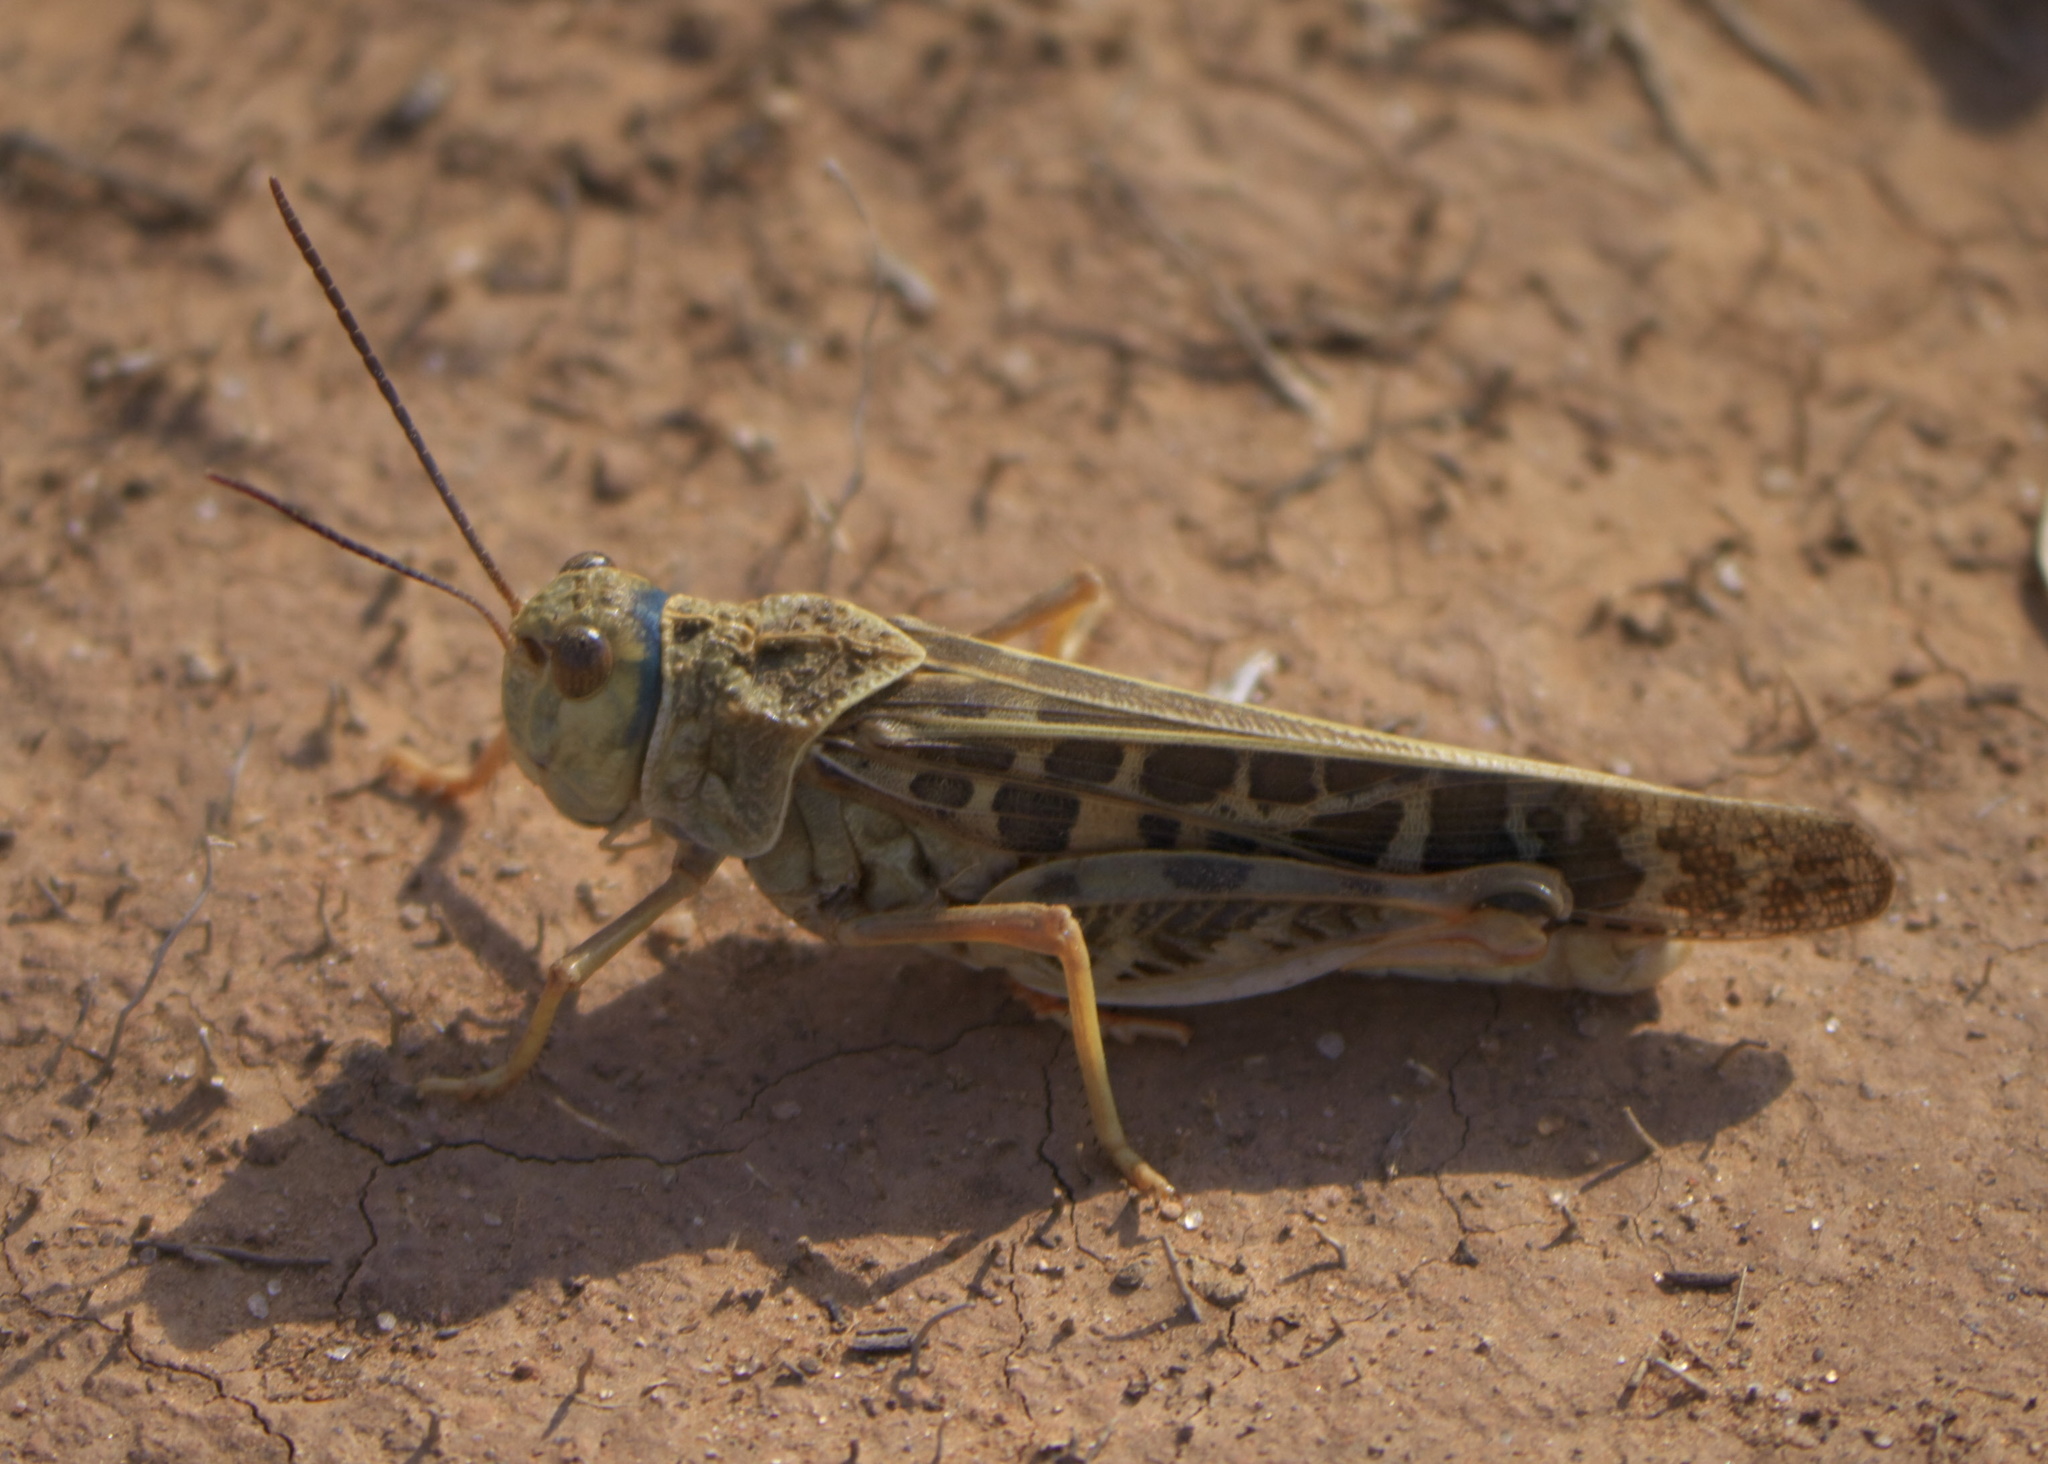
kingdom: Animalia
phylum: Arthropoda
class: Insecta
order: Orthoptera
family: Acrididae
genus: Xanthippus
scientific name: Xanthippus corallipes
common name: Redshanked grasshopper
